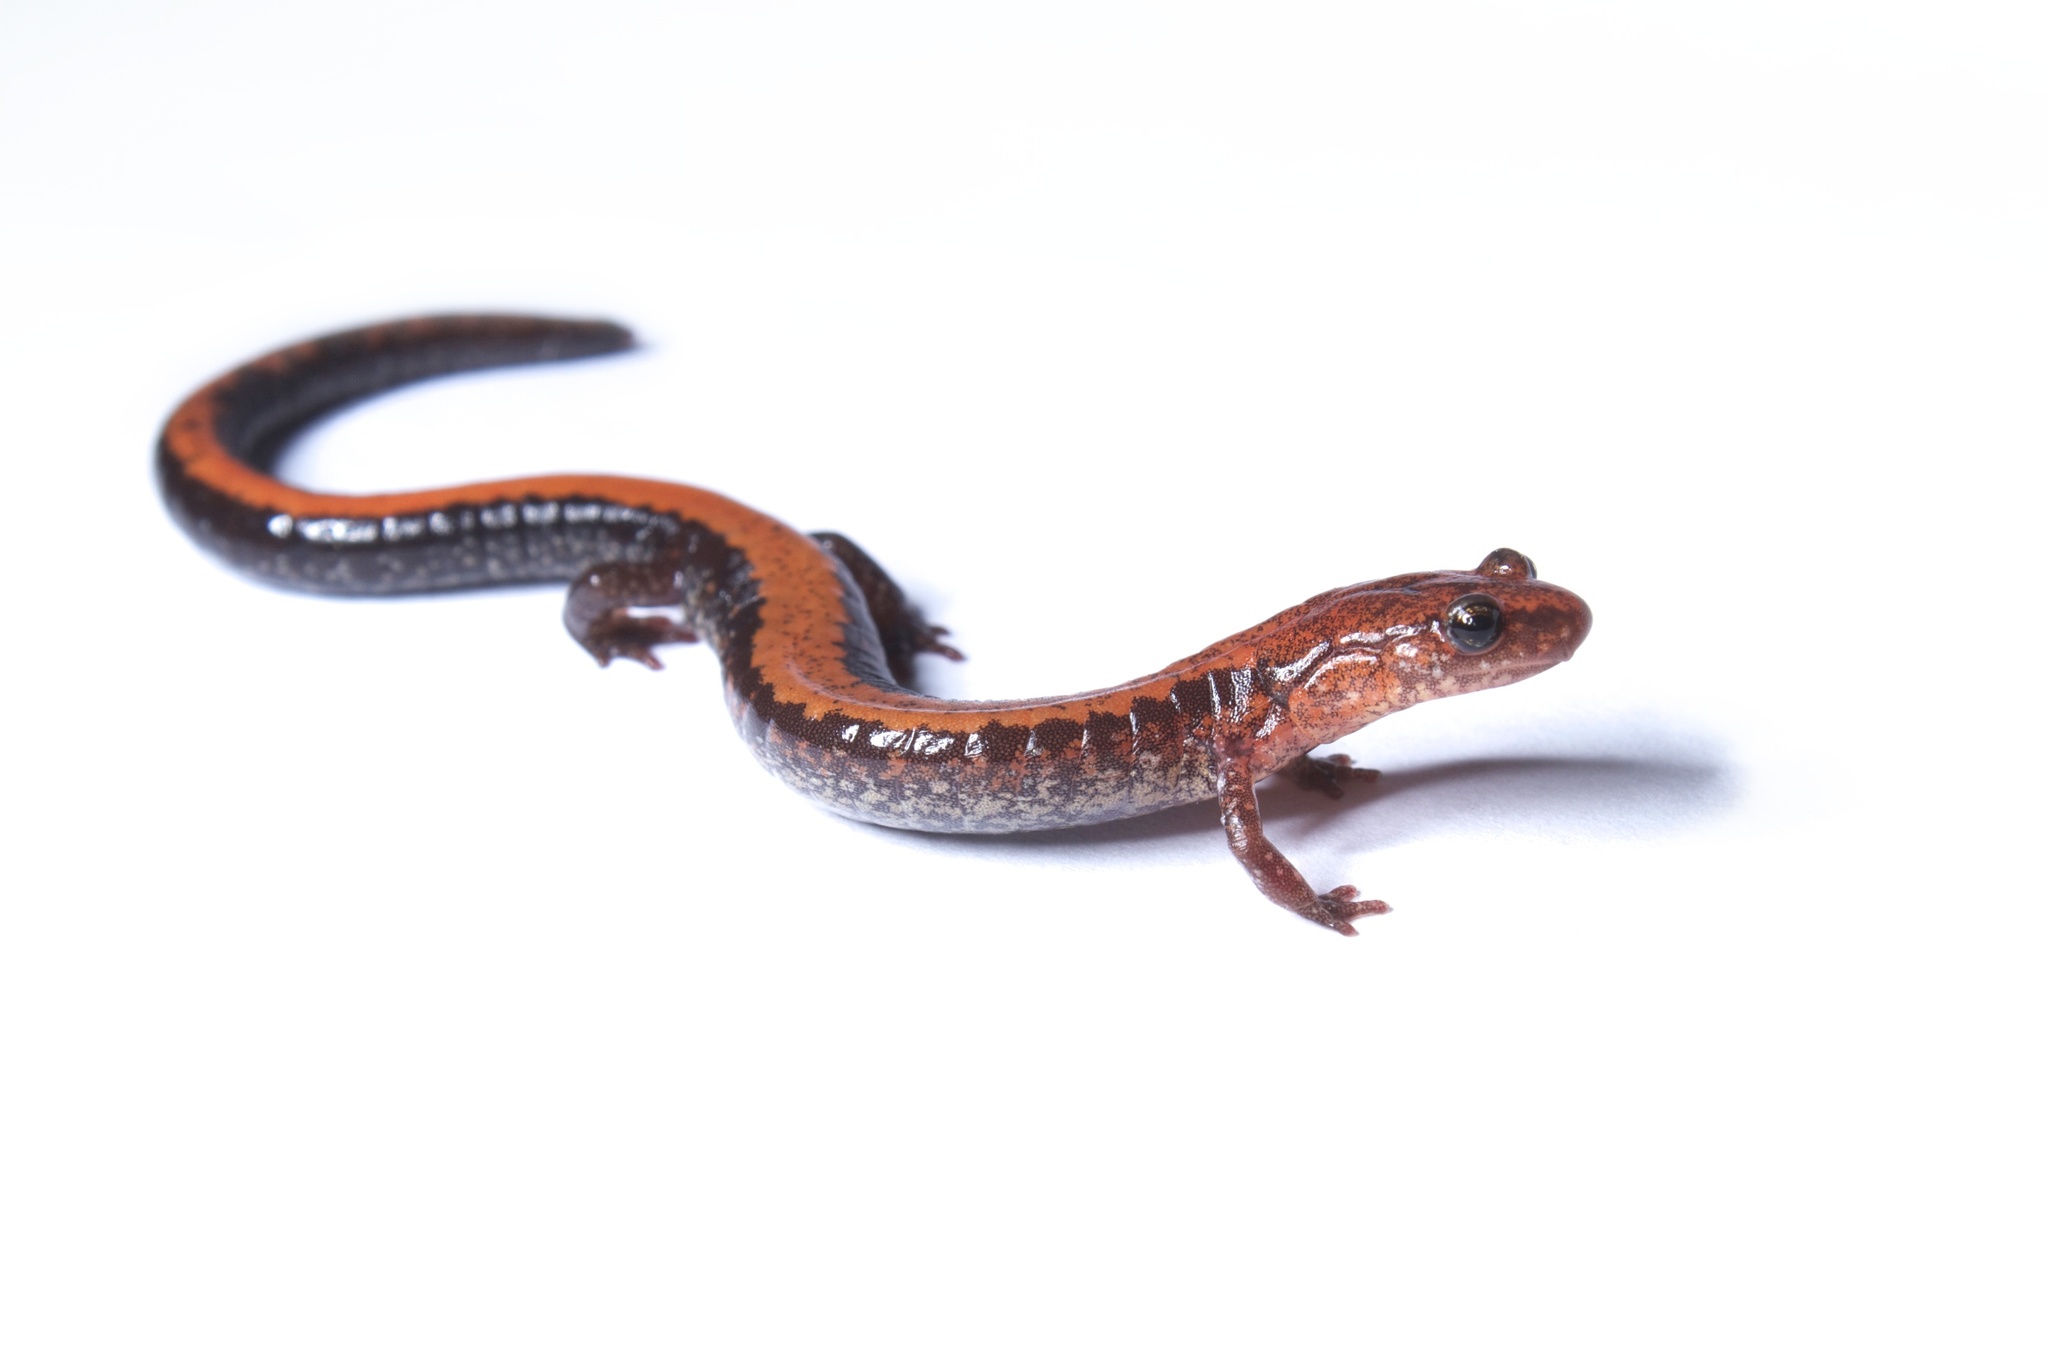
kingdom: Animalia
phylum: Chordata
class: Amphibia
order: Caudata
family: Plethodontidae
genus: Plethodon
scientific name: Plethodon cinereus
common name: Redback salamander
